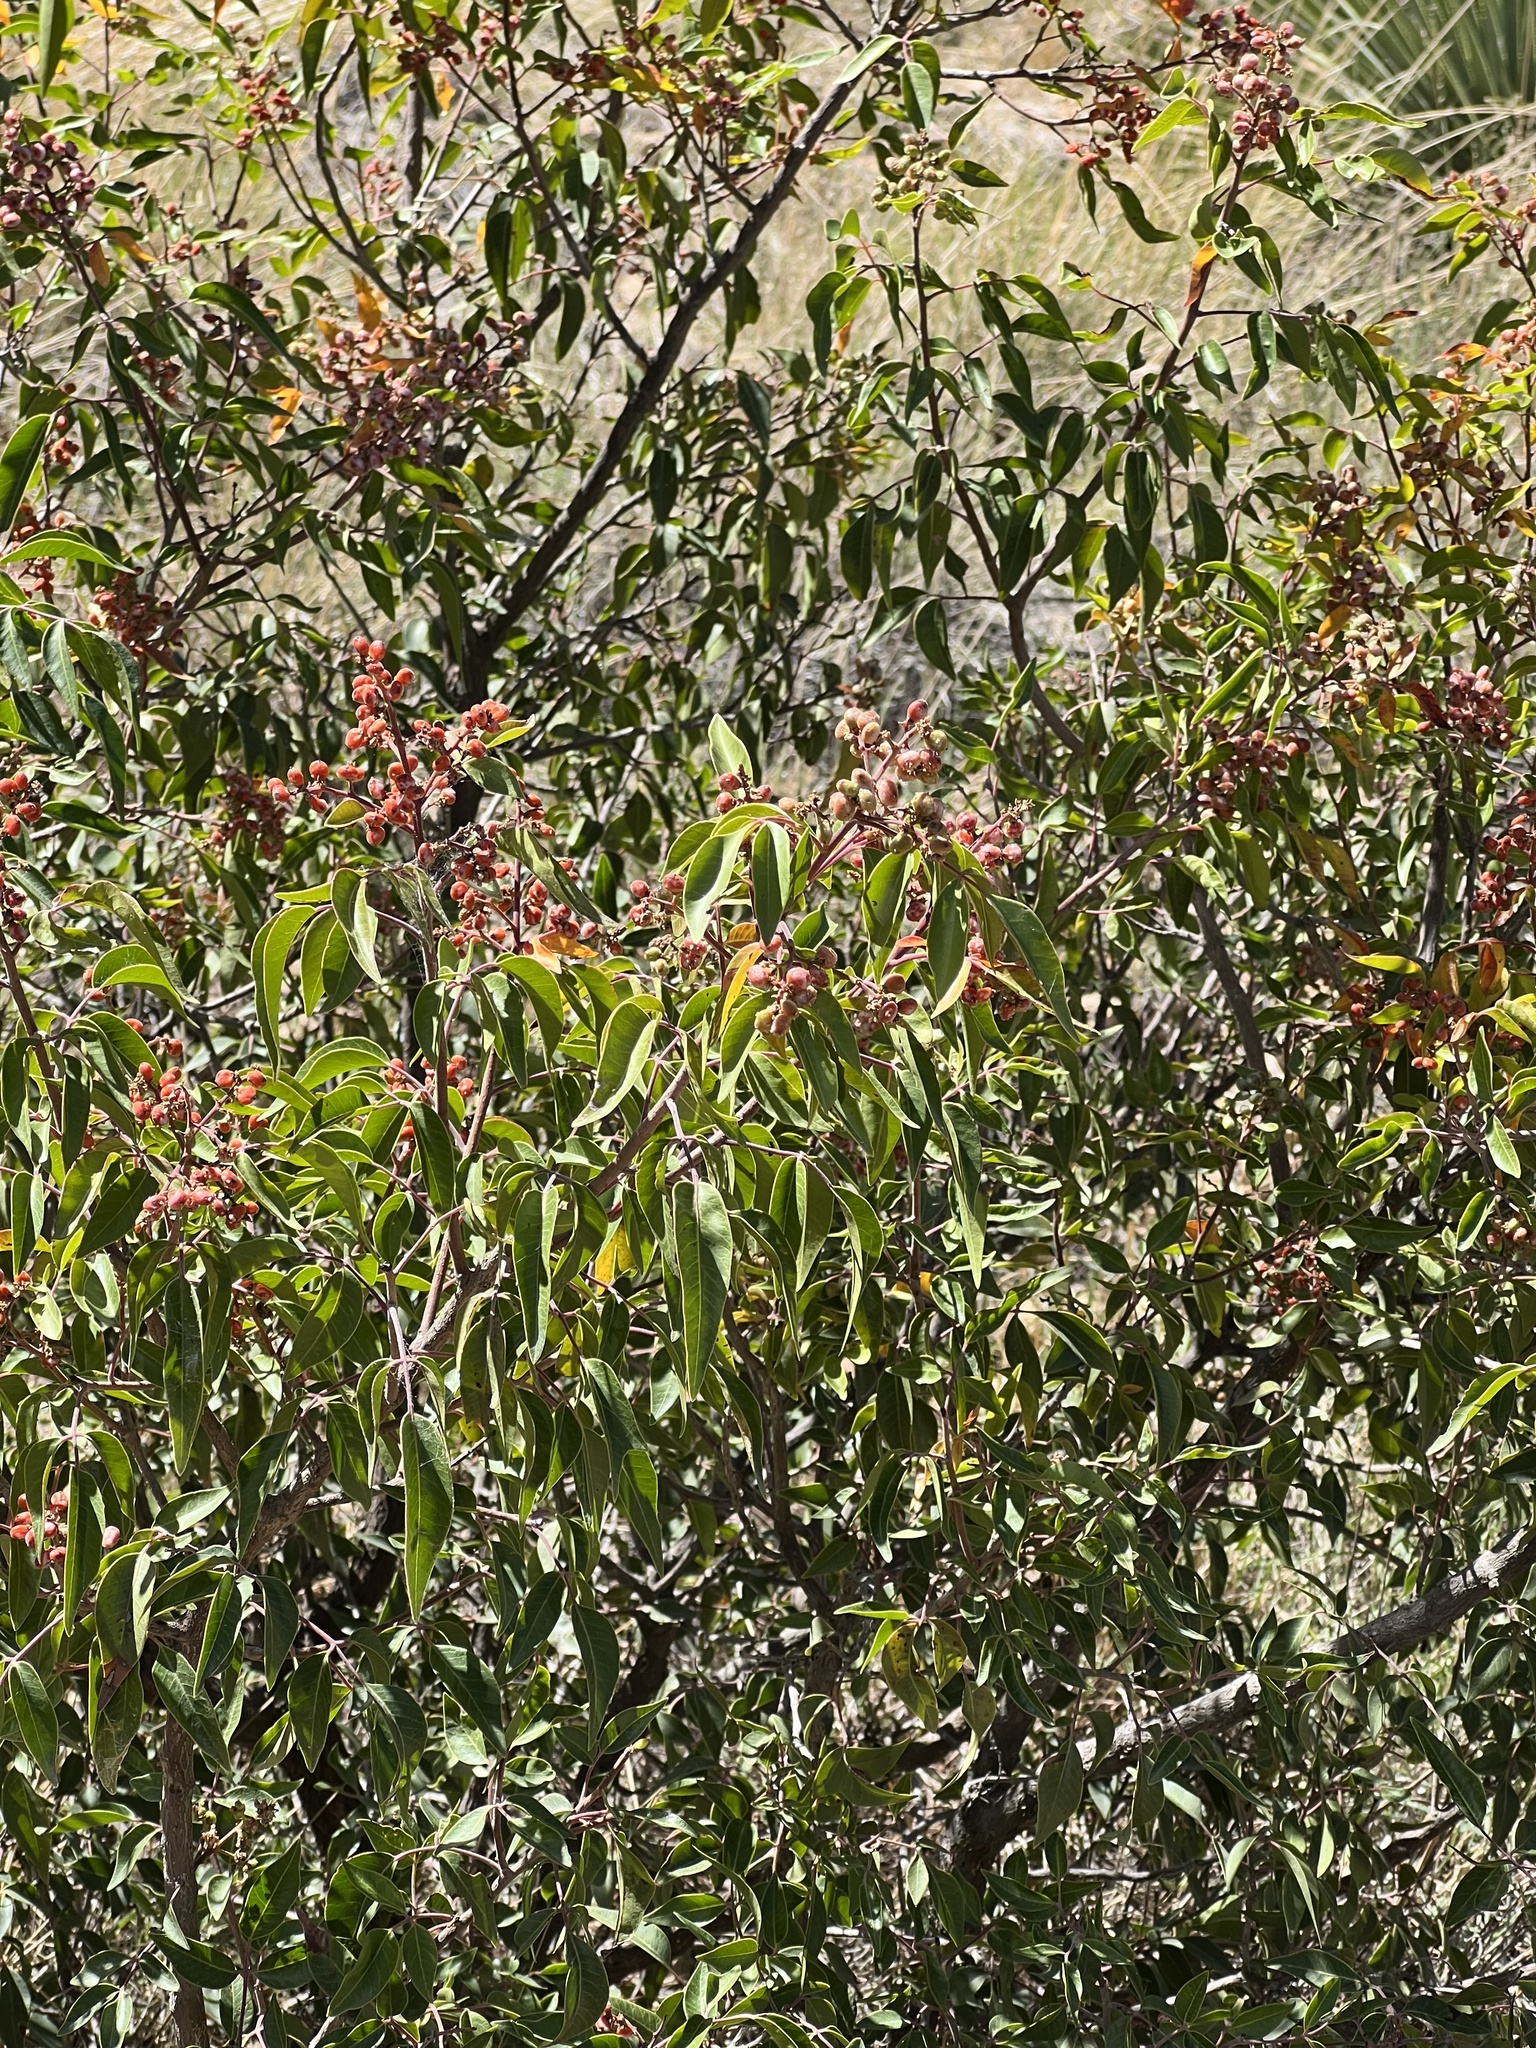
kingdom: Plantae
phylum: Tracheophyta
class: Magnoliopsida
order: Sapindales
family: Anacardiaceae
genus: Rhus
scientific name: Rhus virens
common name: Evergreen sumac
